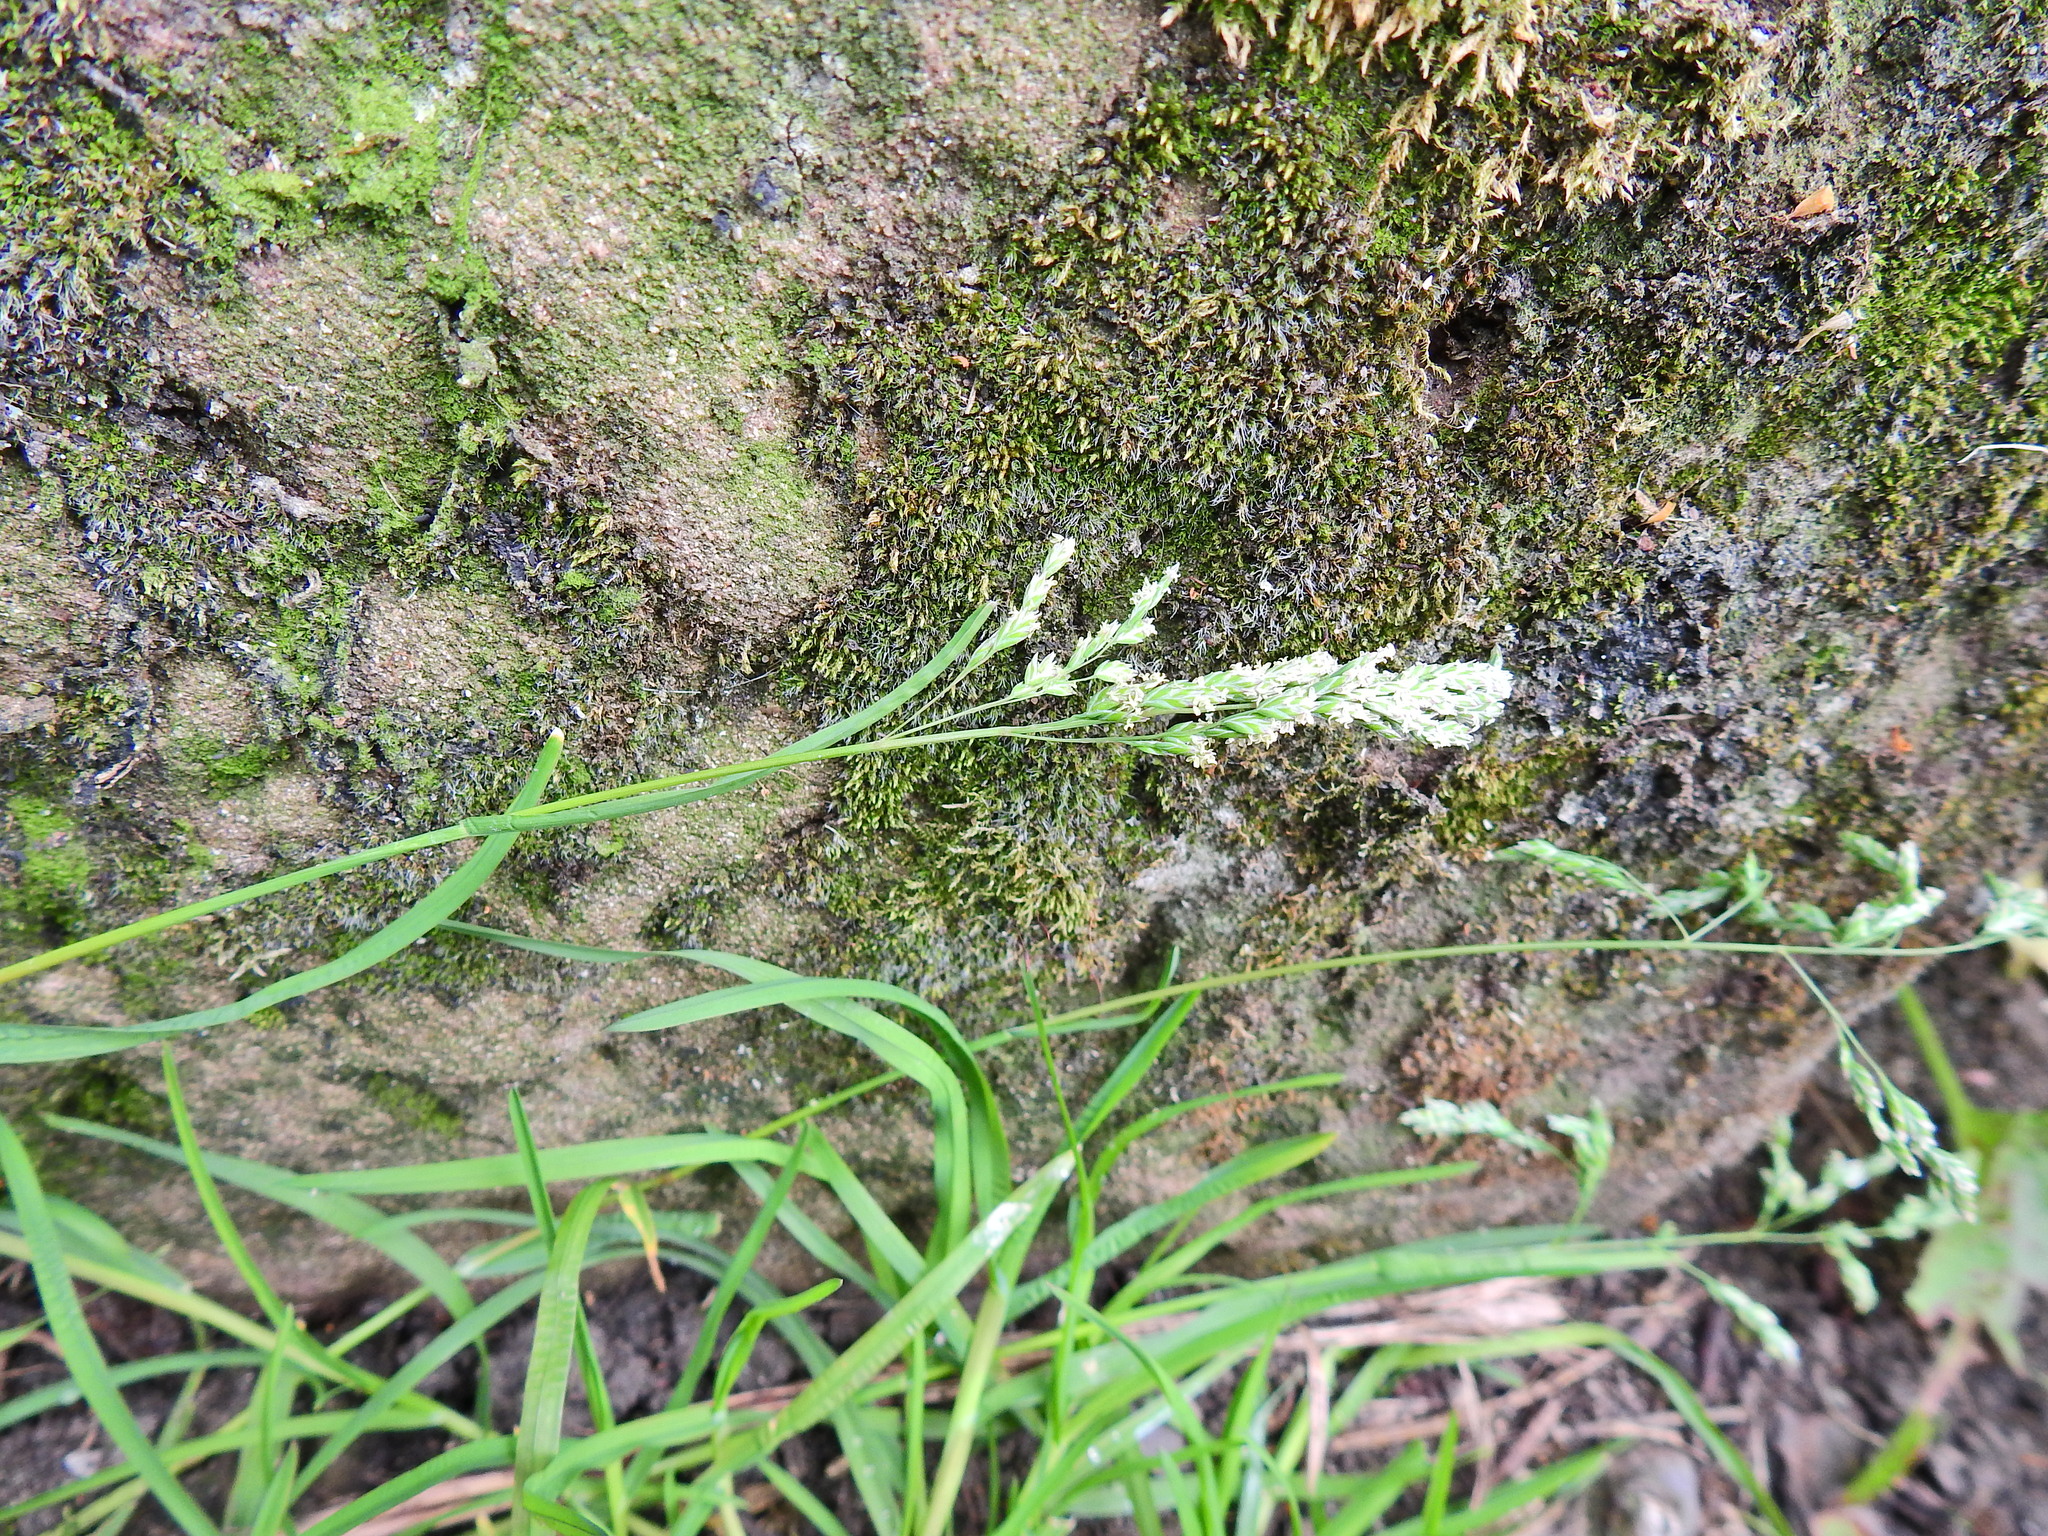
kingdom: Plantae
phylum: Tracheophyta
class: Liliopsida
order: Poales
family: Poaceae
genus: Poa
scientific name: Poa annua
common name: Annual bluegrass
